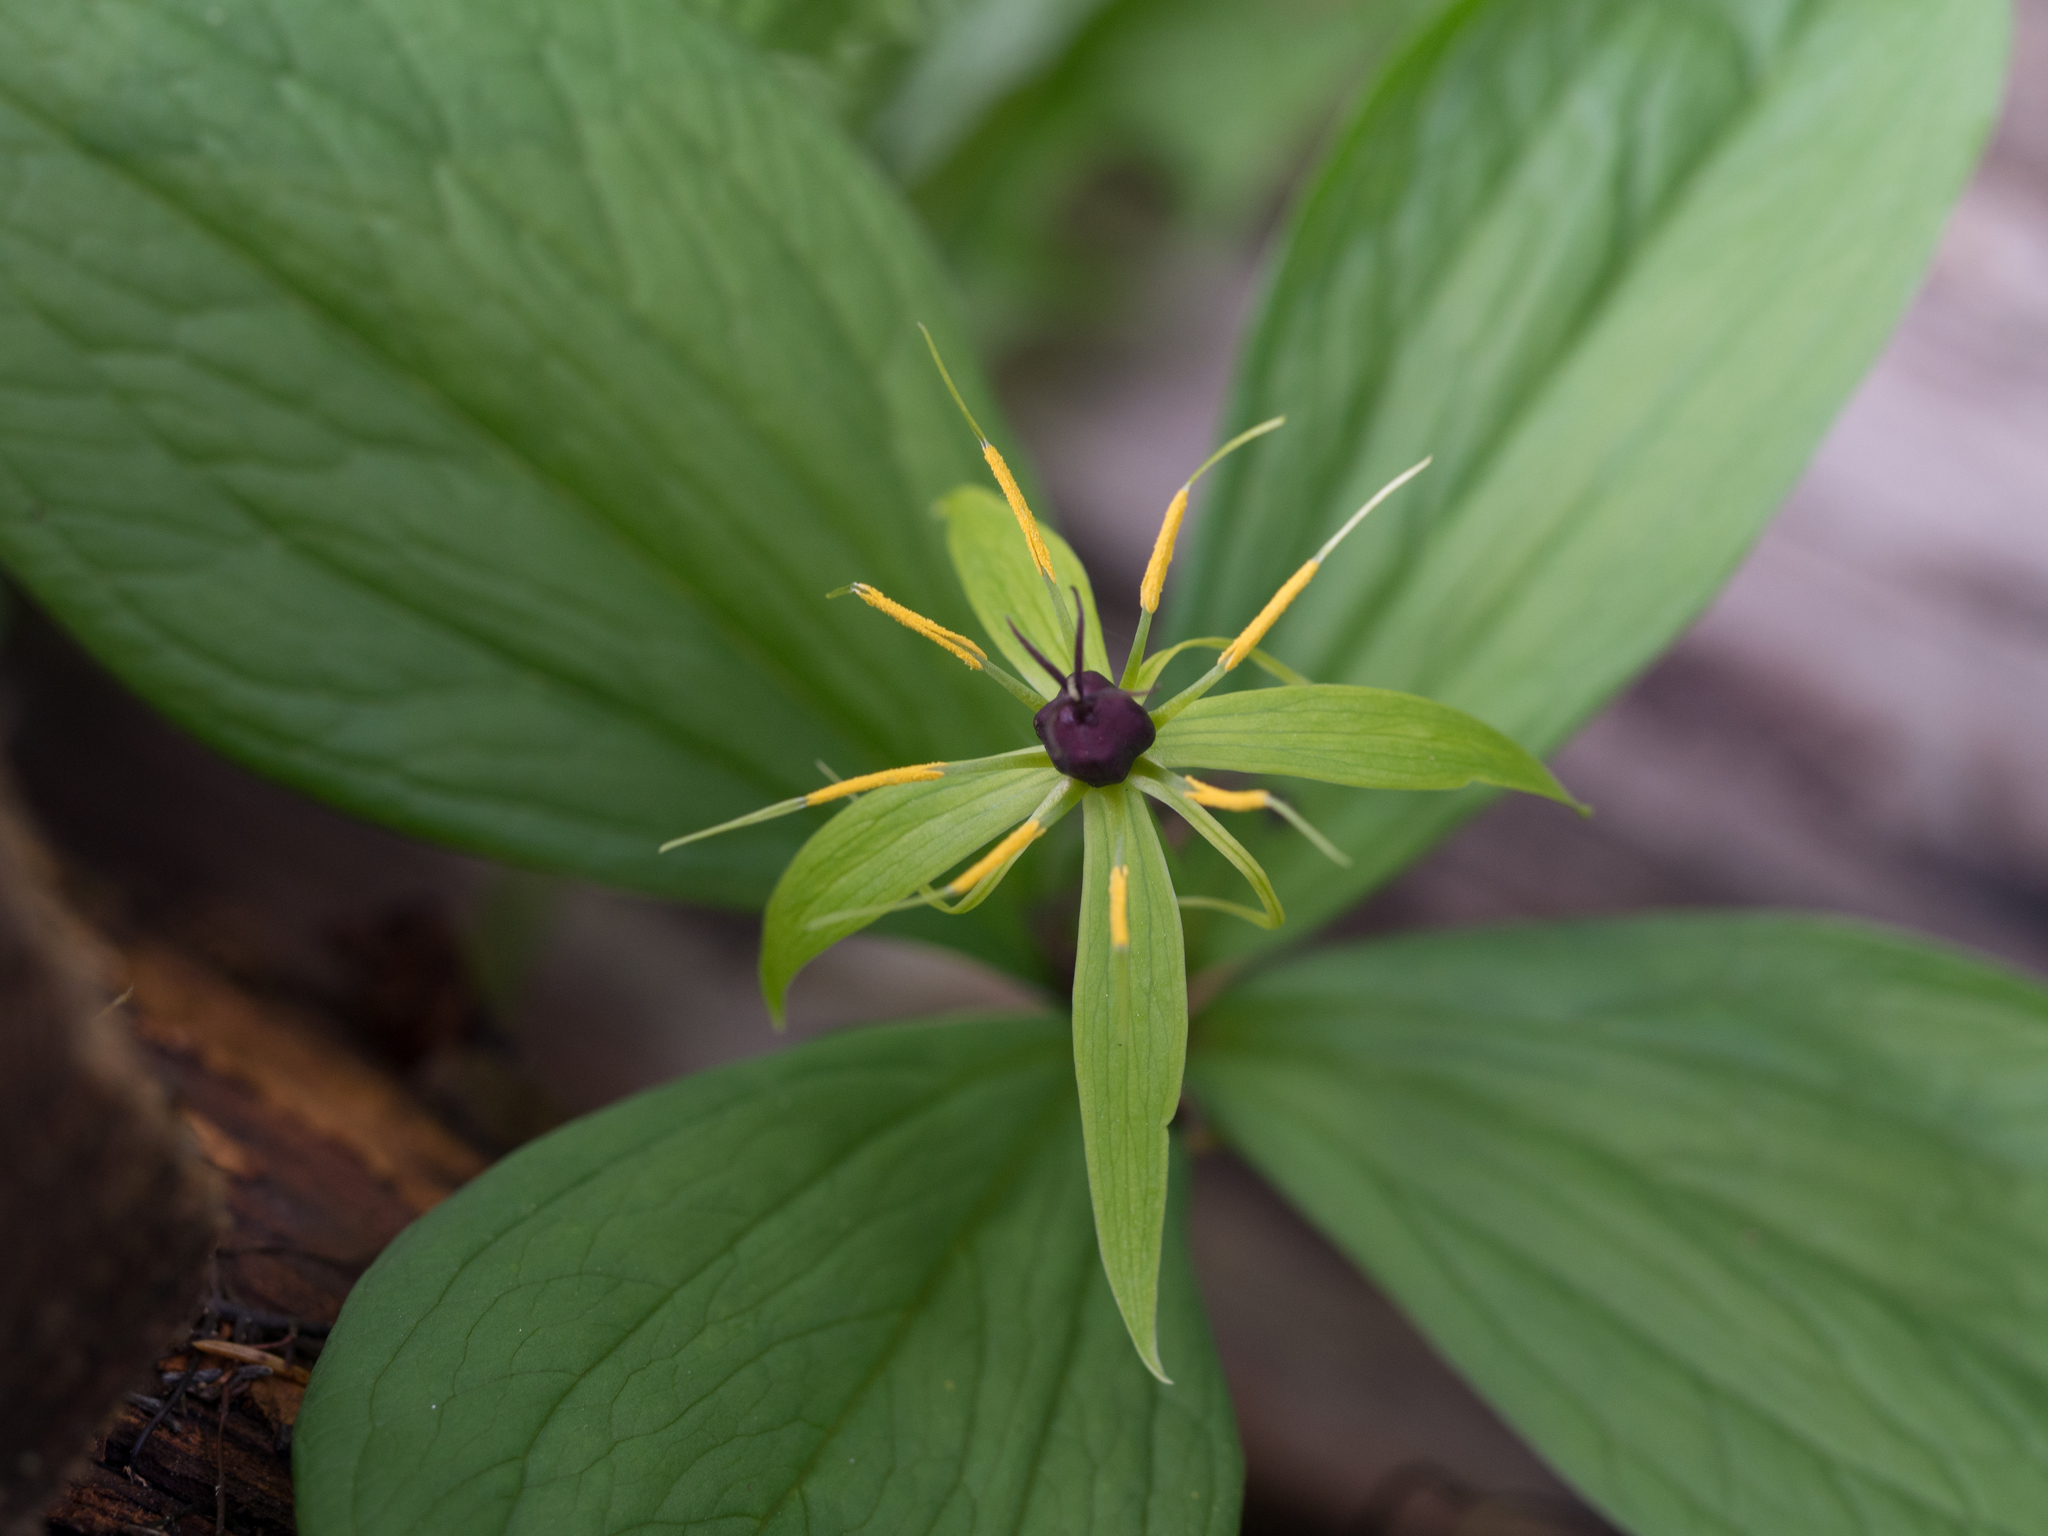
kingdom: Plantae
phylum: Tracheophyta
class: Liliopsida
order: Liliales
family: Melanthiaceae
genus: Paris
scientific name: Paris quadrifolia
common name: Herb-paris
